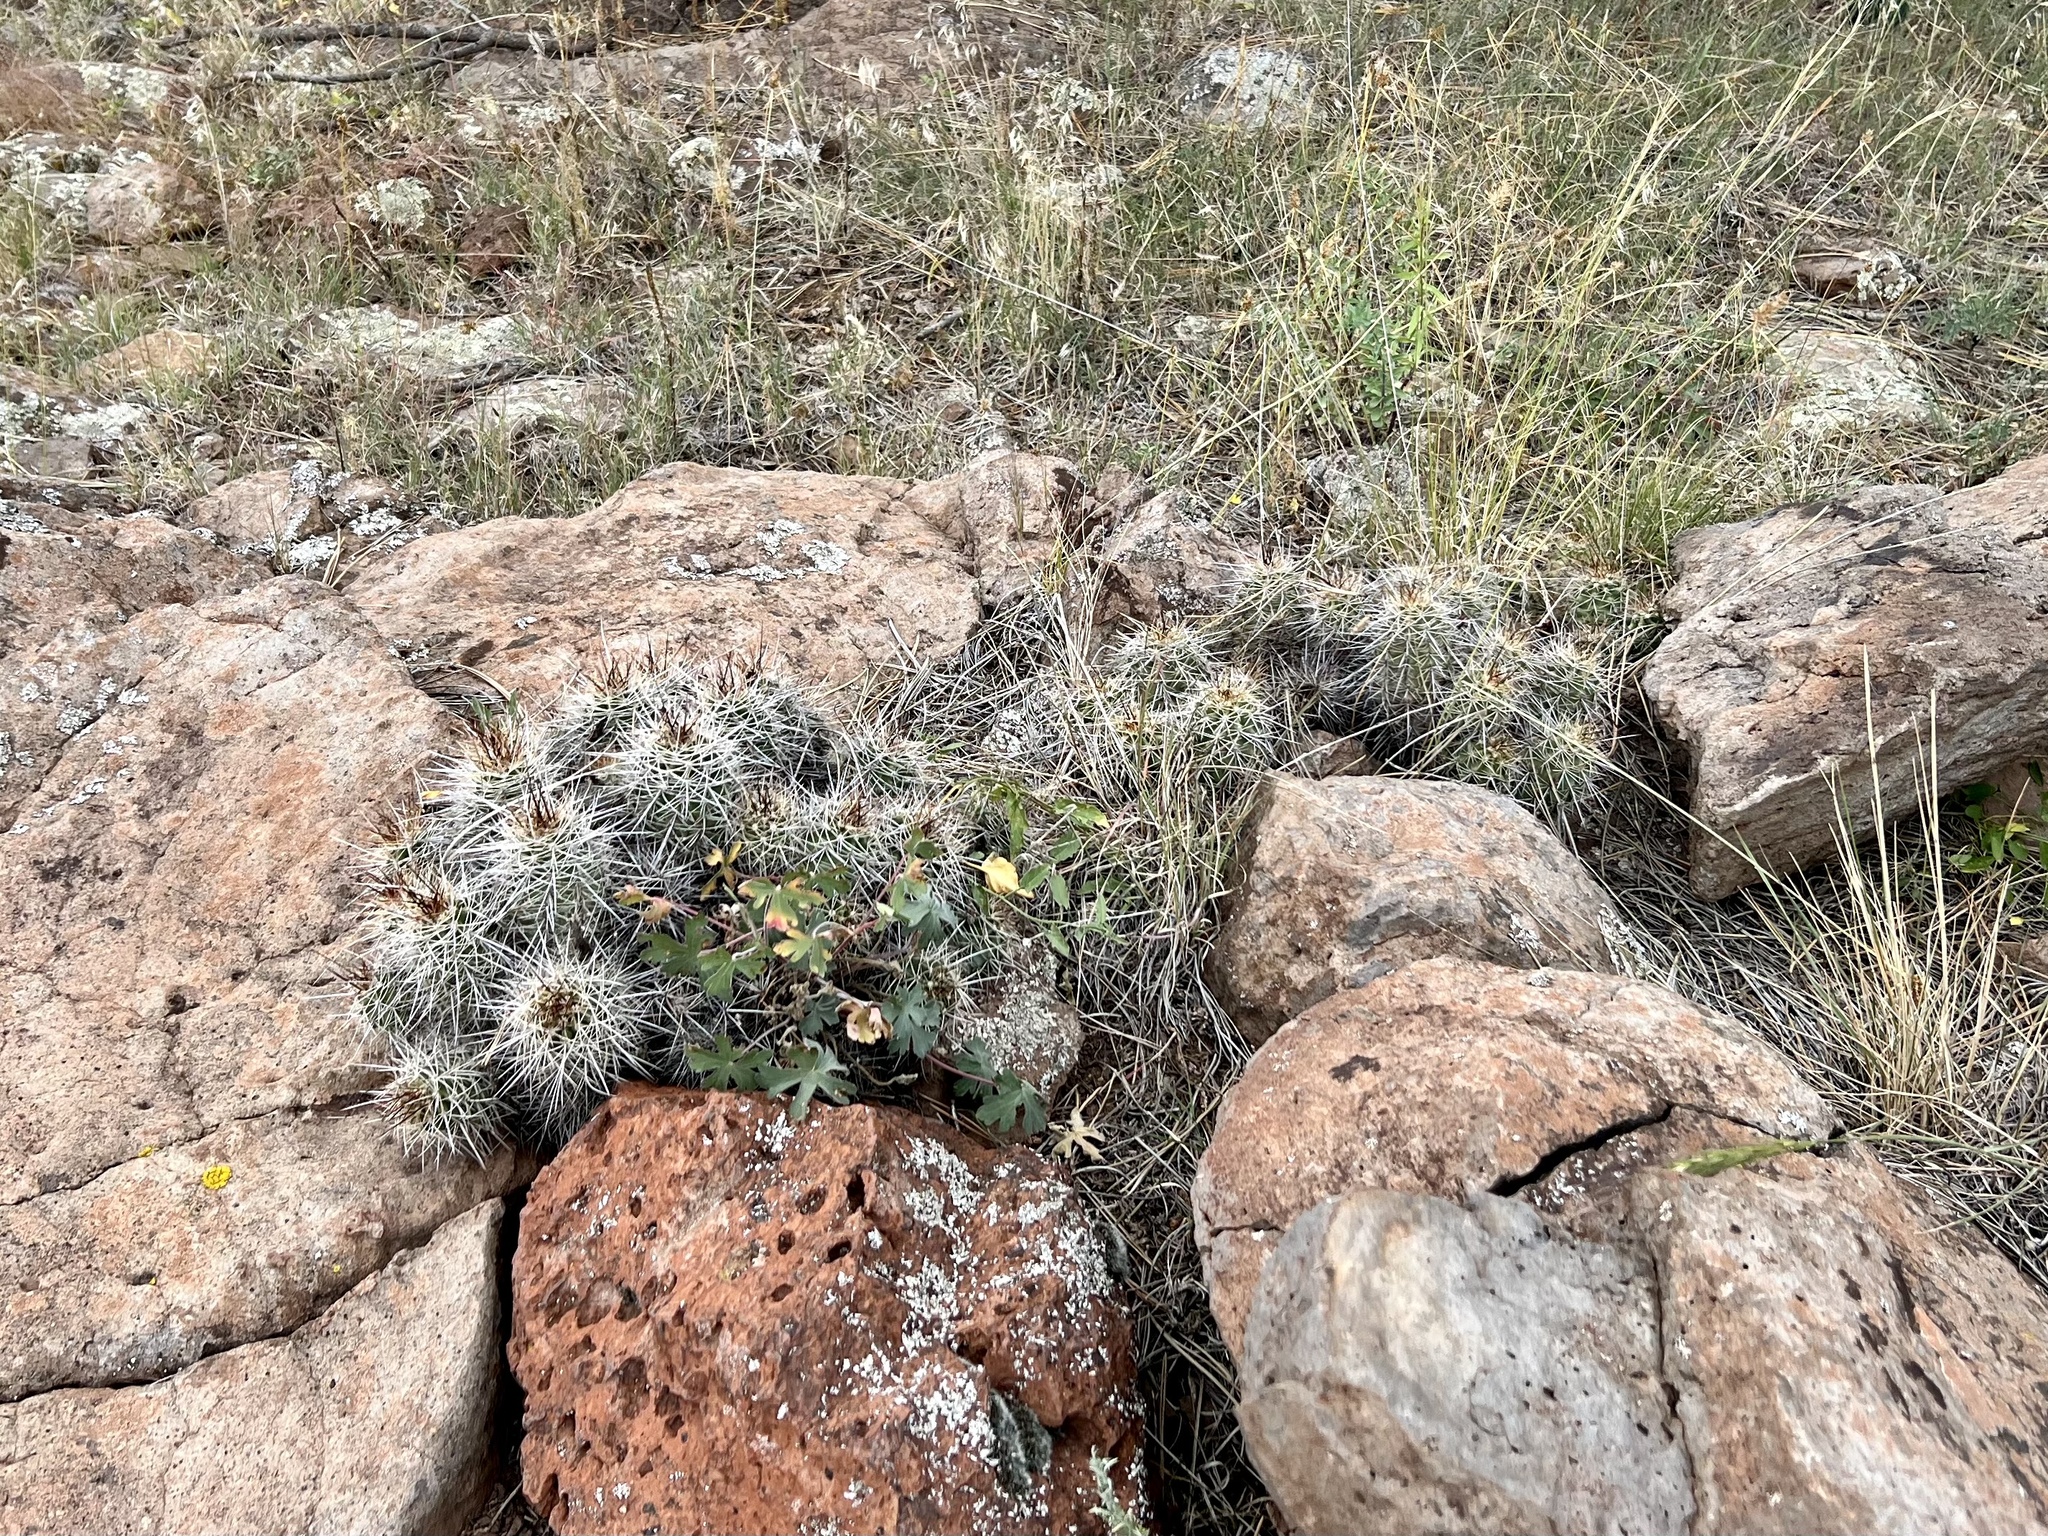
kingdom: Plantae
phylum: Tracheophyta
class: Magnoliopsida
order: Caryophyllales
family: Cactaceae
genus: Echinocereus
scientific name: Echinocereus bakeri
